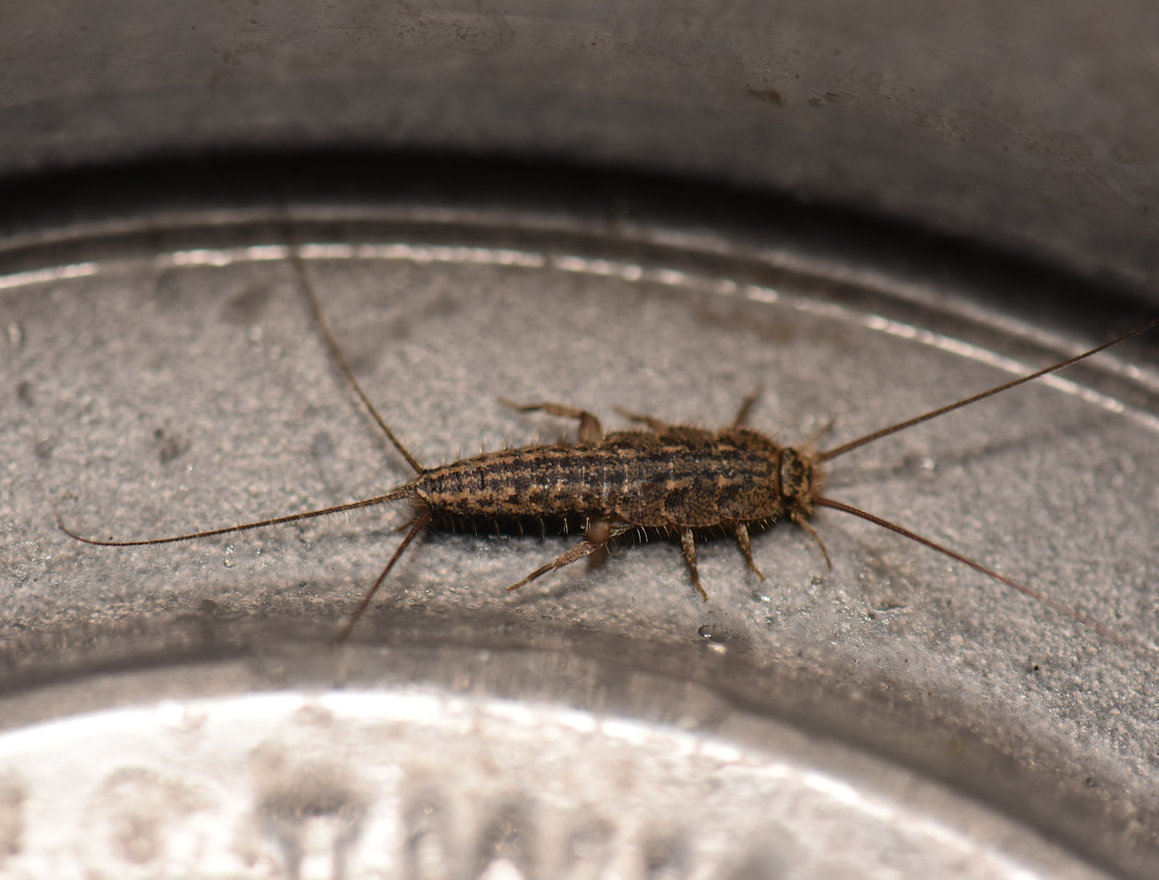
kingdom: Animalia
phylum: Arthropoda
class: Insecta
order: Zygentoma
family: Lepismatidae
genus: Ctenolepisma
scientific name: Ctenolepisma lineata
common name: Four-lined silverfish
